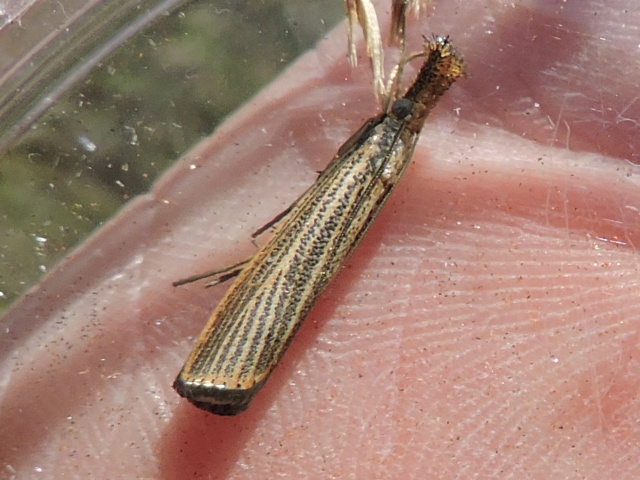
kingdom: Animalia
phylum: Arthropoda
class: Insecta
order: Lepidoptera
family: Crambidae
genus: Agriphila
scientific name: Agriphila vulgivagellus
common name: Vagabond crambus moth
